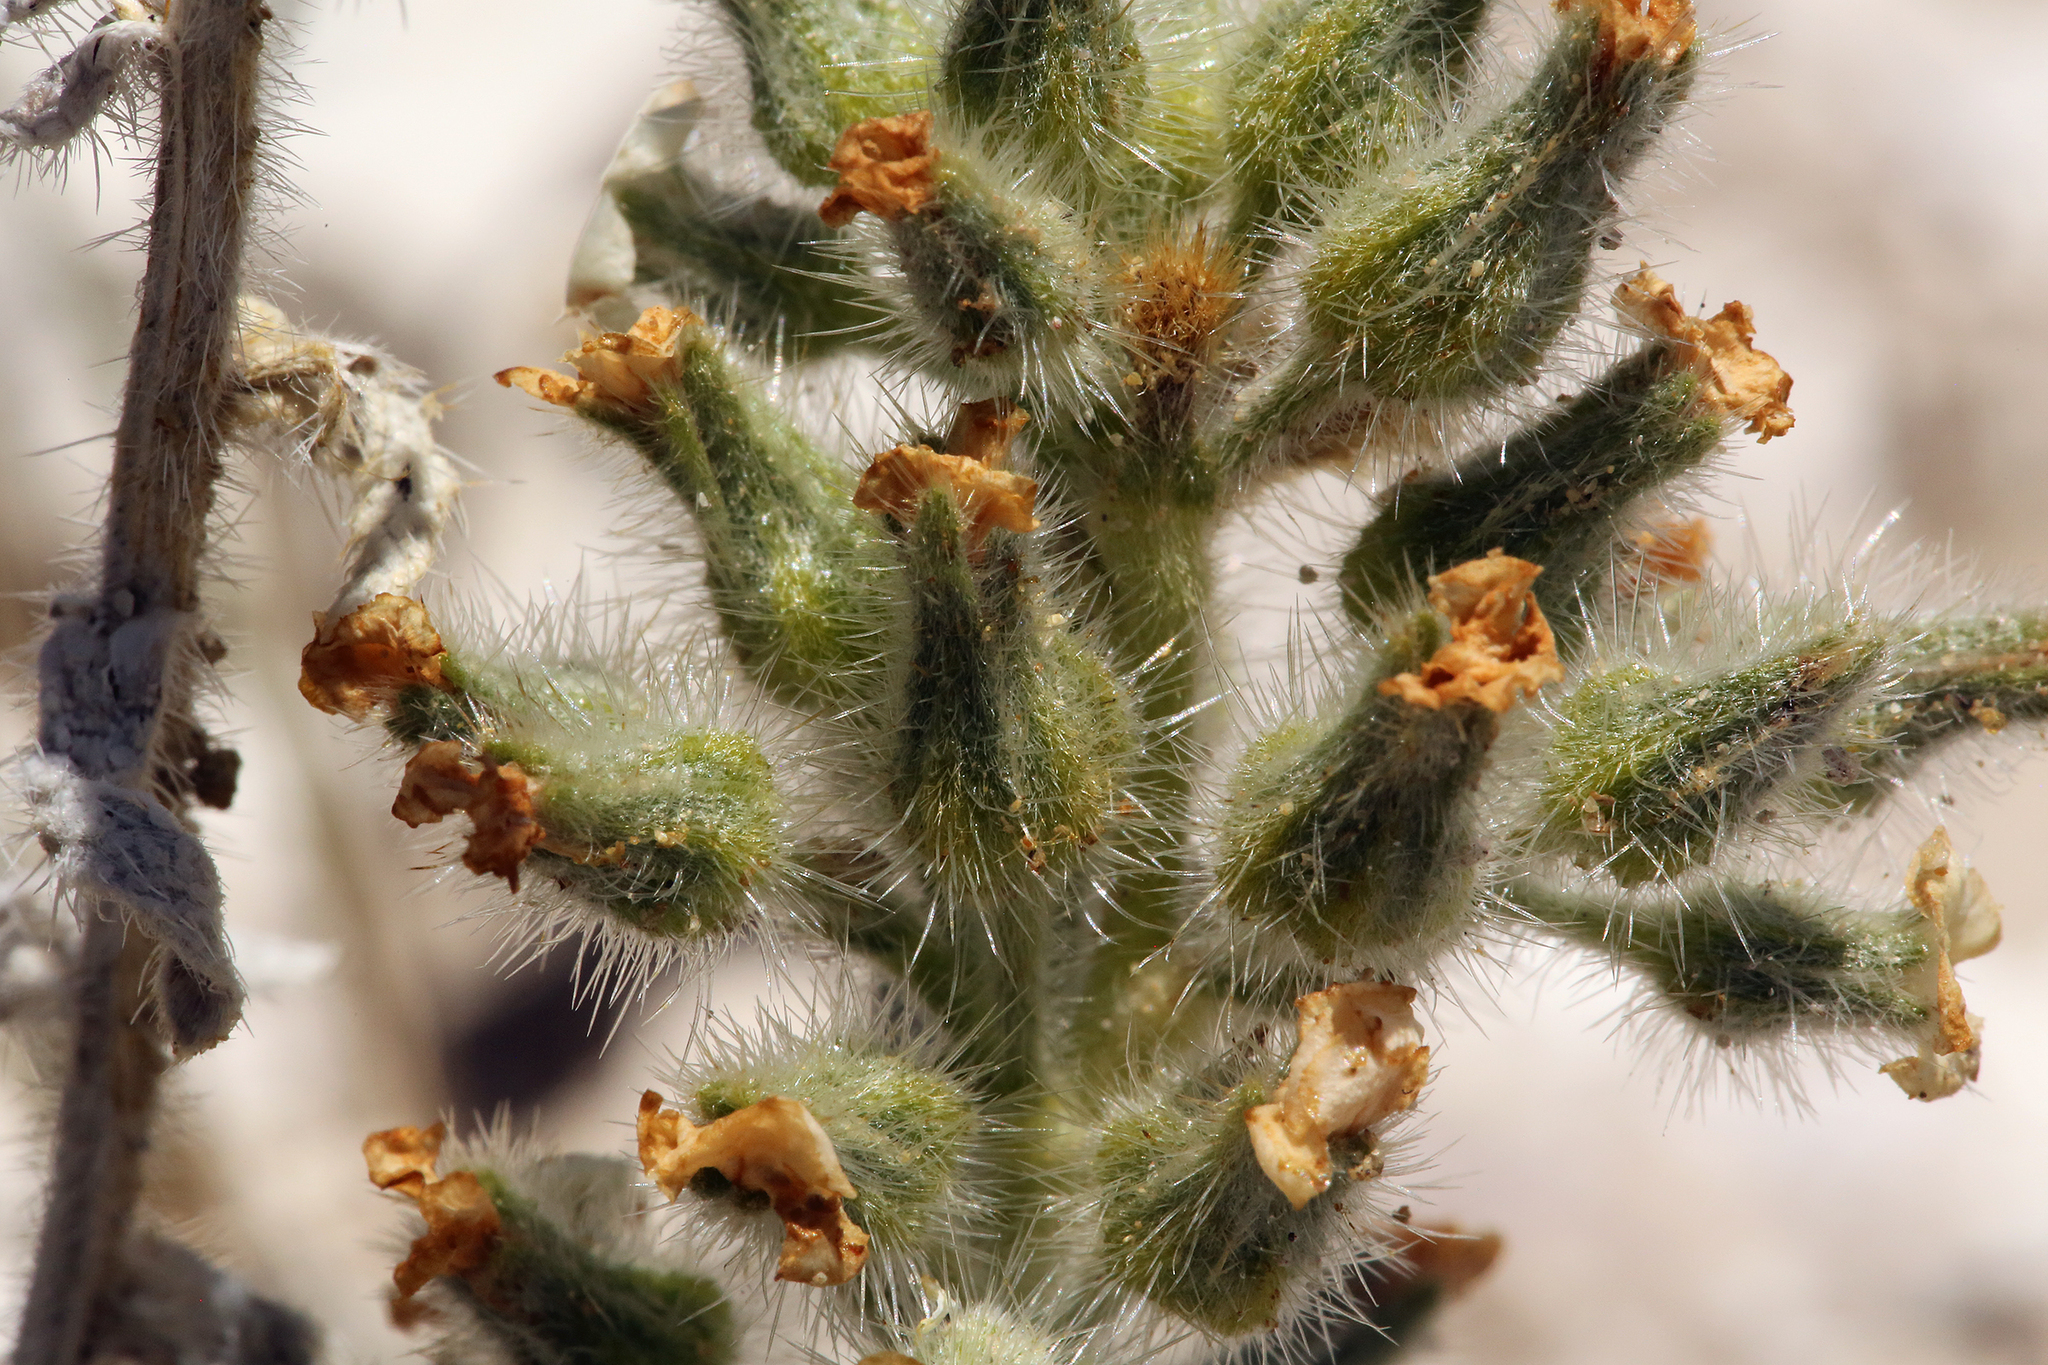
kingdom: Plantae
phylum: Tracheophyta
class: Magnoliopsida
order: Boraginales
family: Boraginaceae
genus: Oreocarya
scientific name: Oreocarya flavoculata
